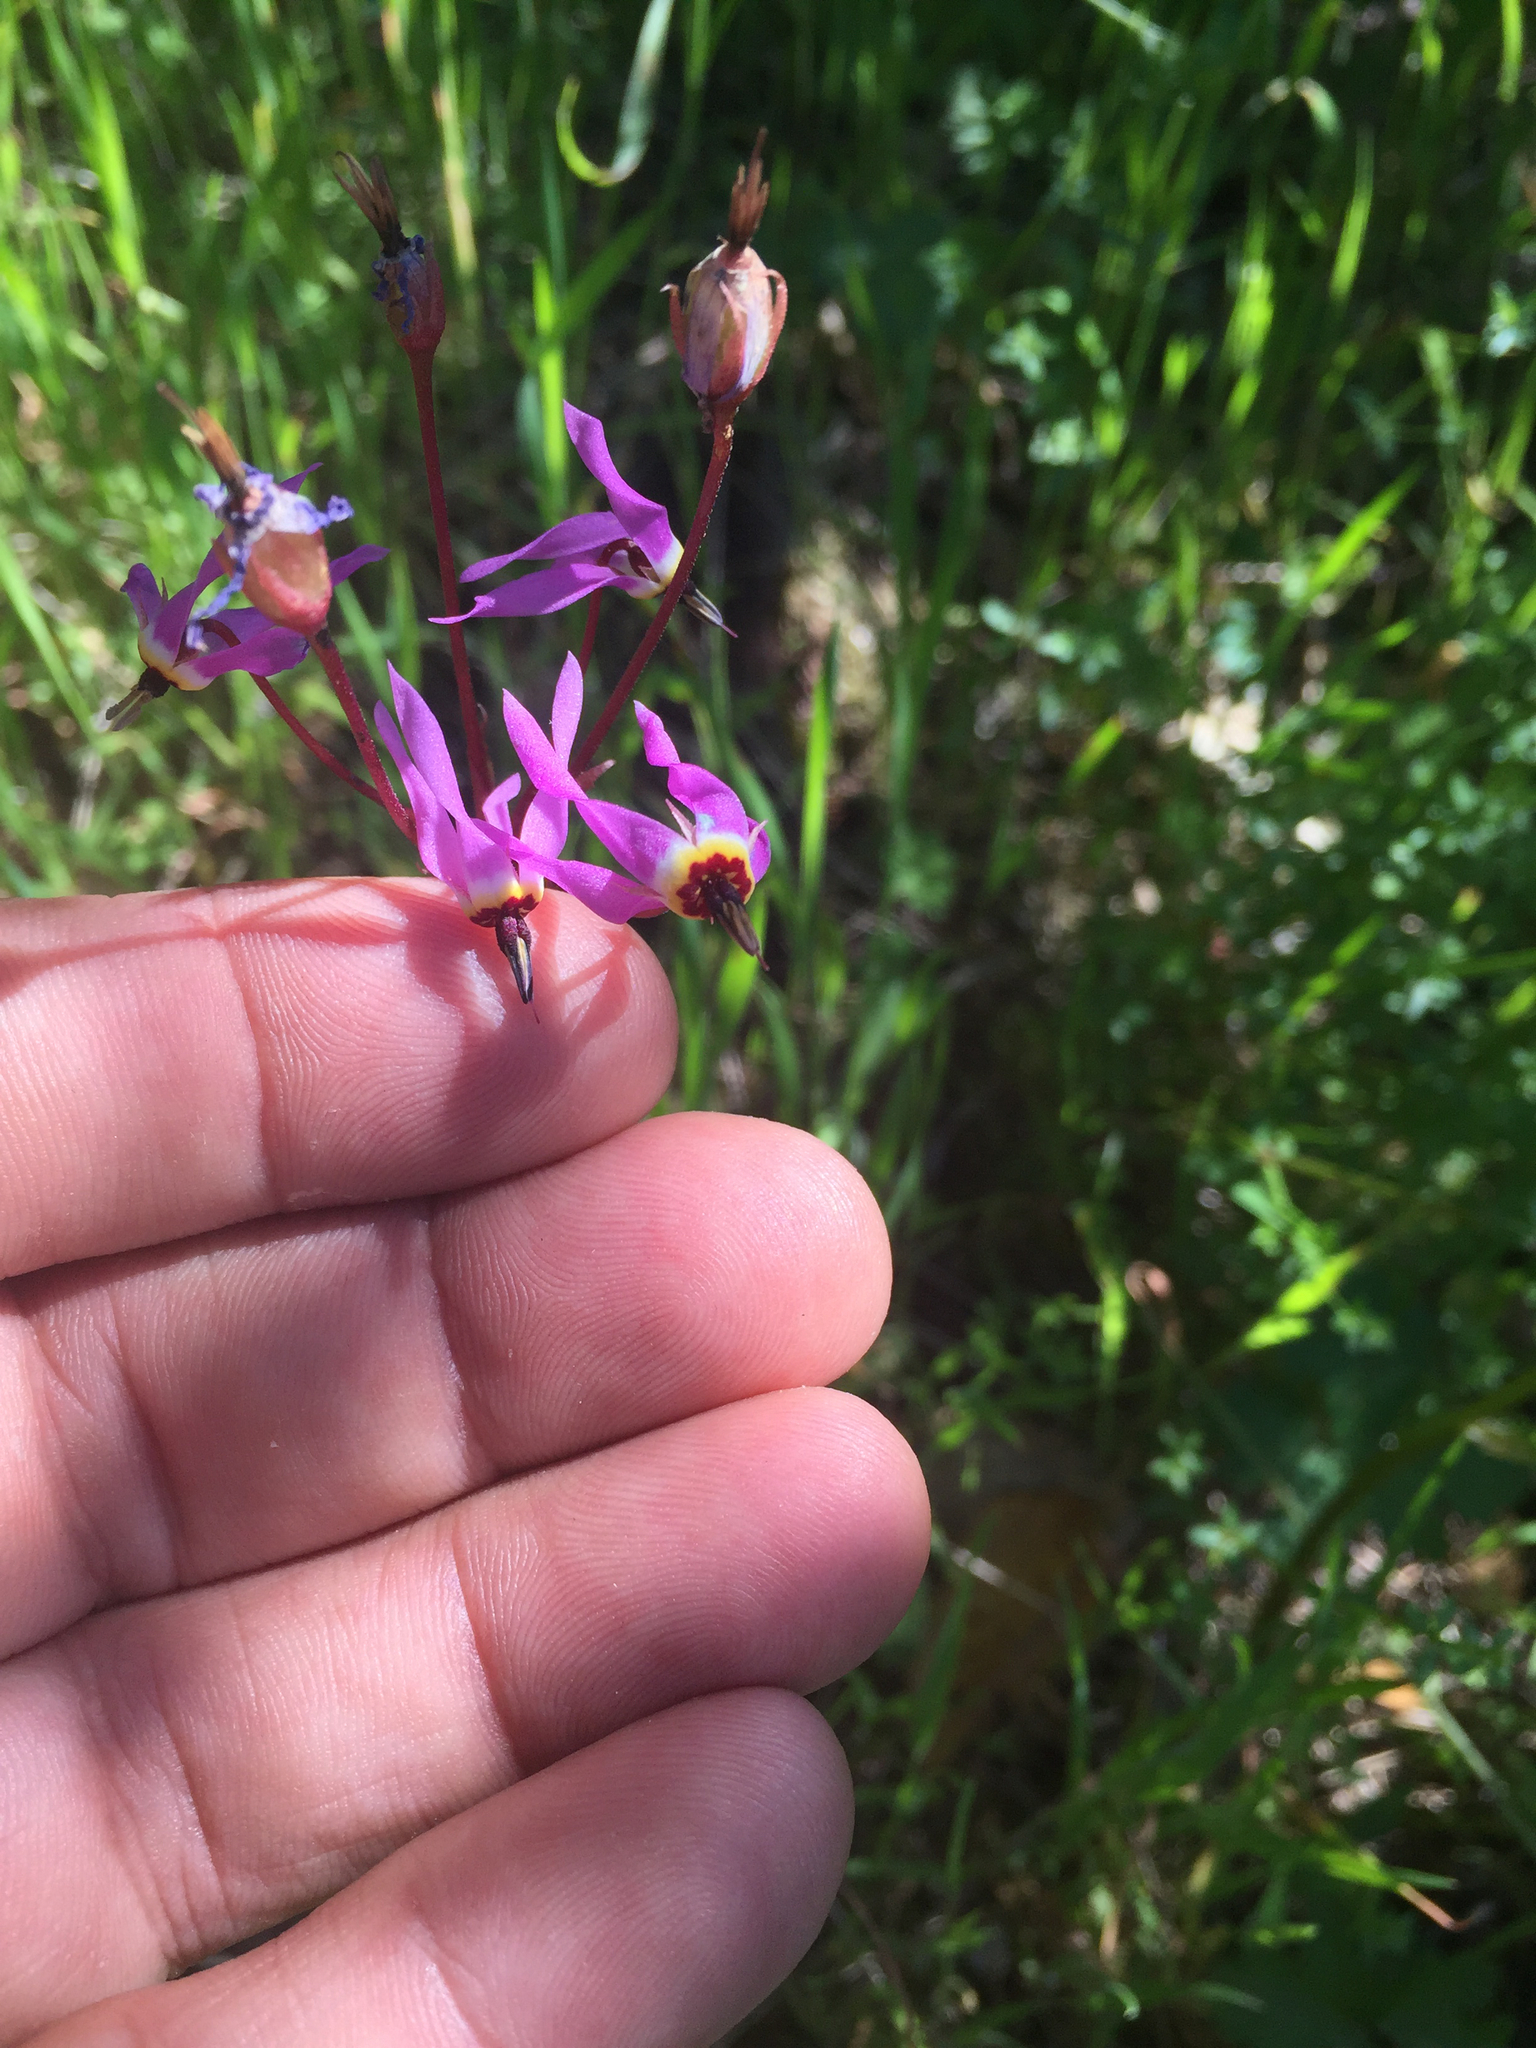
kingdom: Plantae
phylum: Tracheophyta
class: Magnoliopsida
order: Ericales
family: Primulaceae
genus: Dodecatheon
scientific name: Dodecatheon hendersonii
